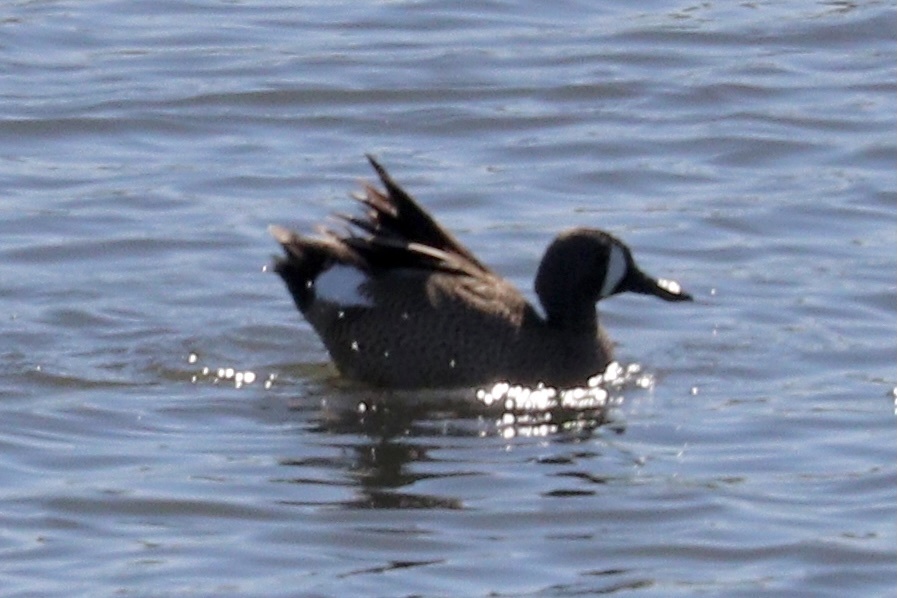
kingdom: Animalia
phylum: Chordata
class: Aves
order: Anseriformes
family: Anatidae
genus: Spatula
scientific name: Spatula discors
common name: Blue-winged teal
